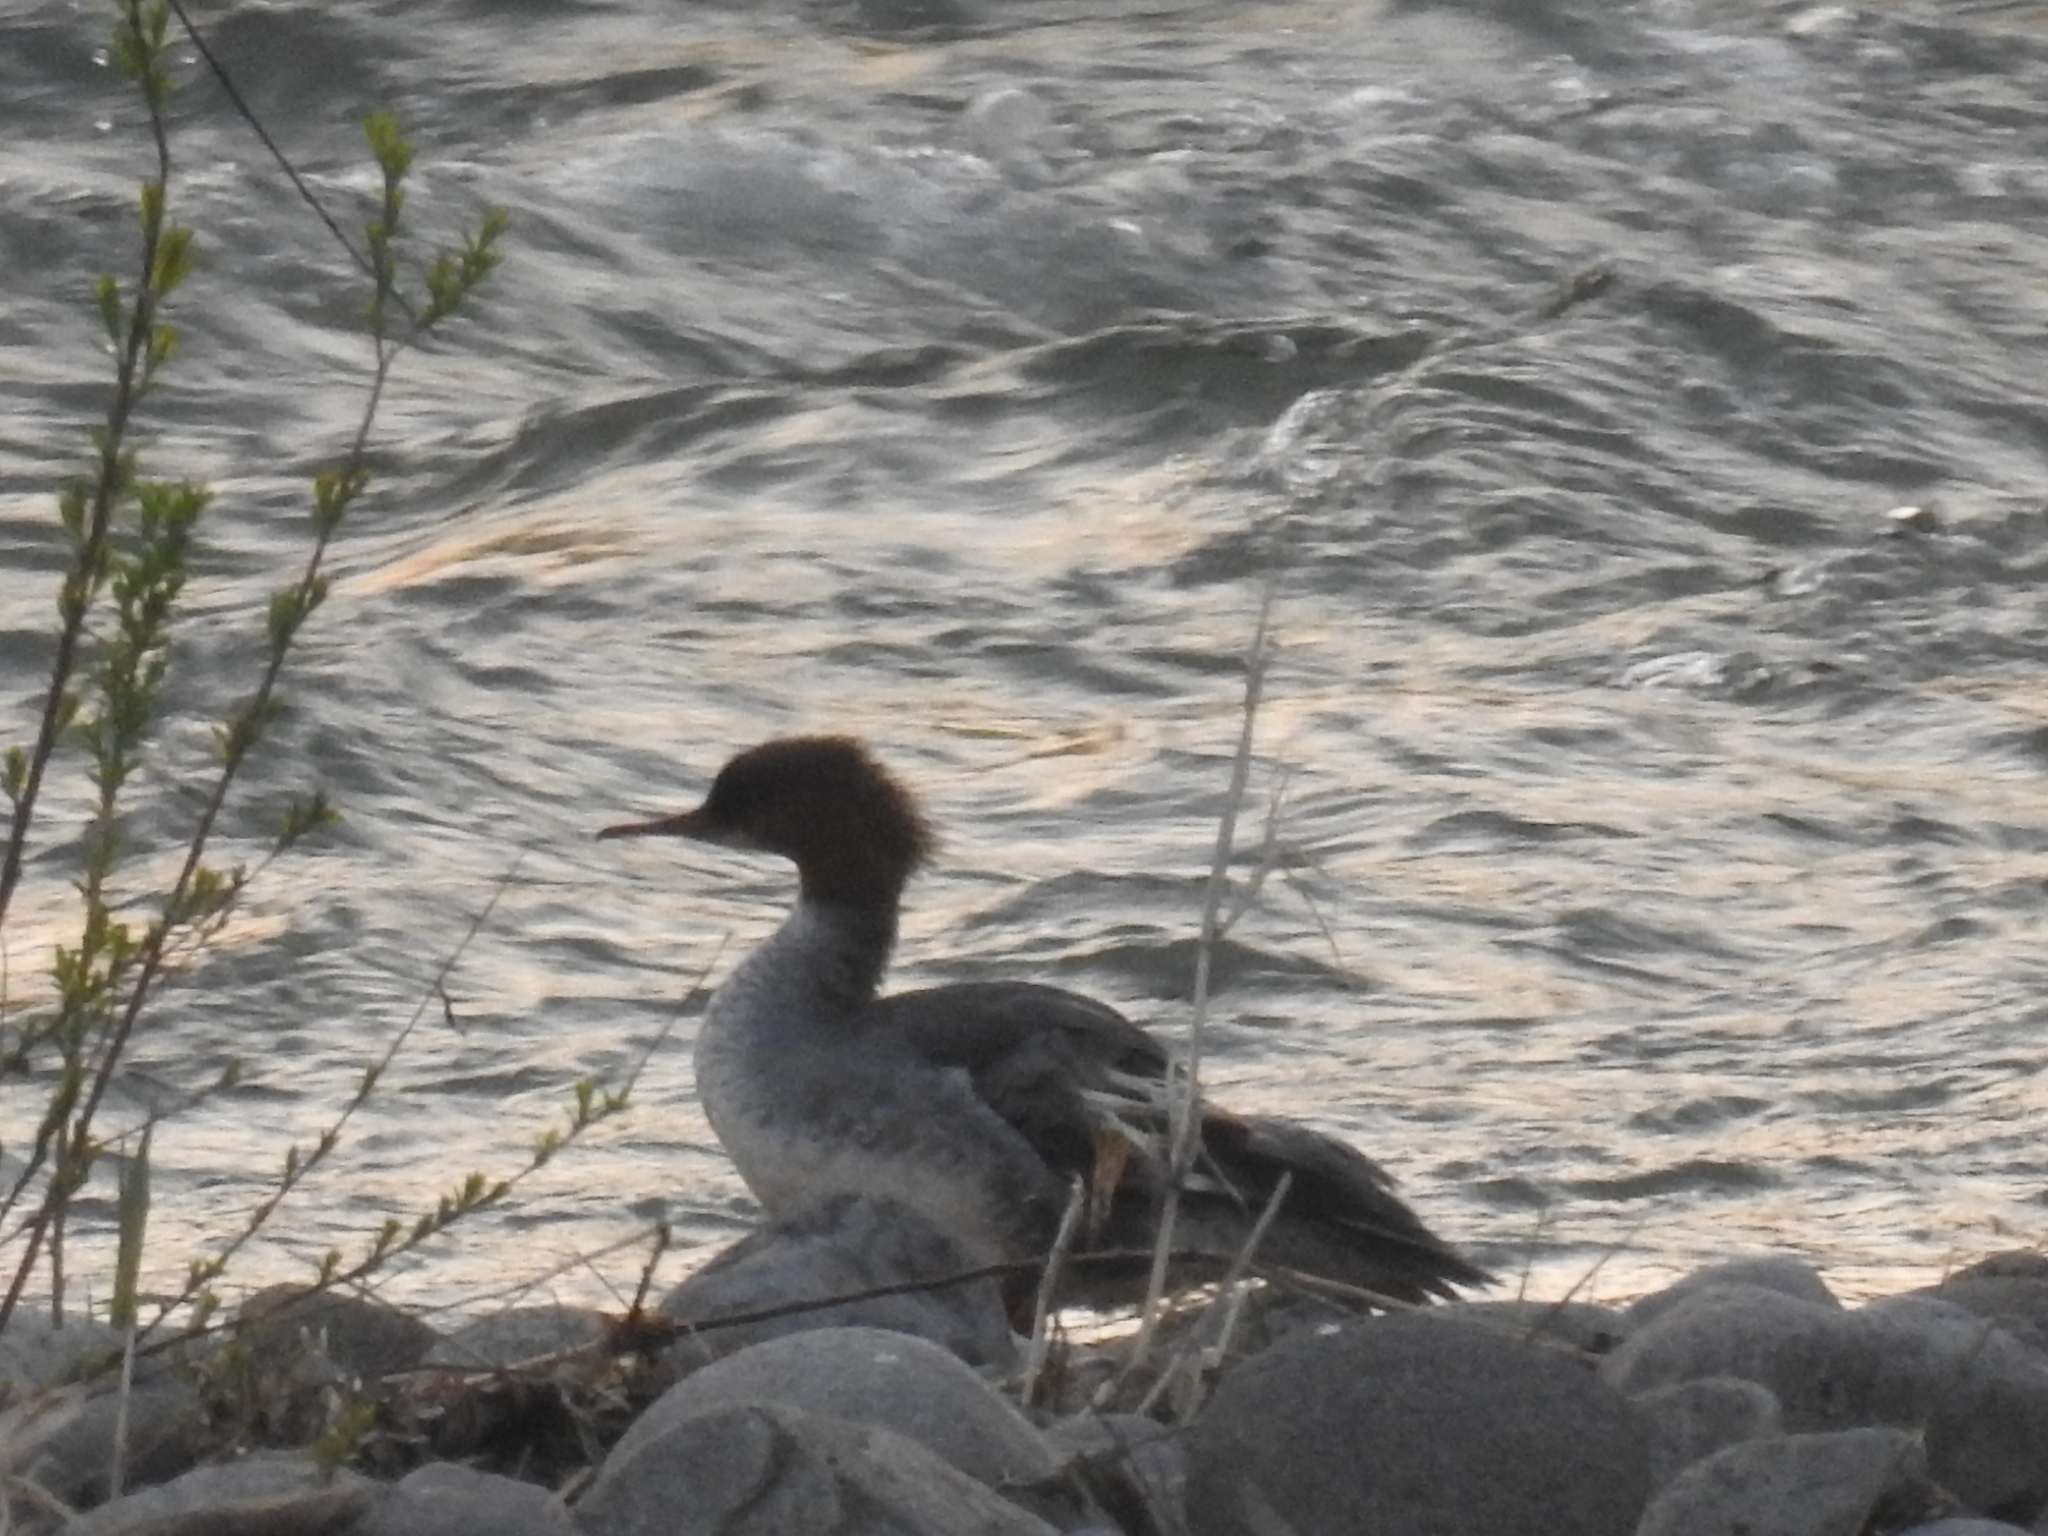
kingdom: Animalia
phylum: Chordata
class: Aves
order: Anseriformes
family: Anatidae
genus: Mergus
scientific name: Mergus merganser
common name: Common merganser
